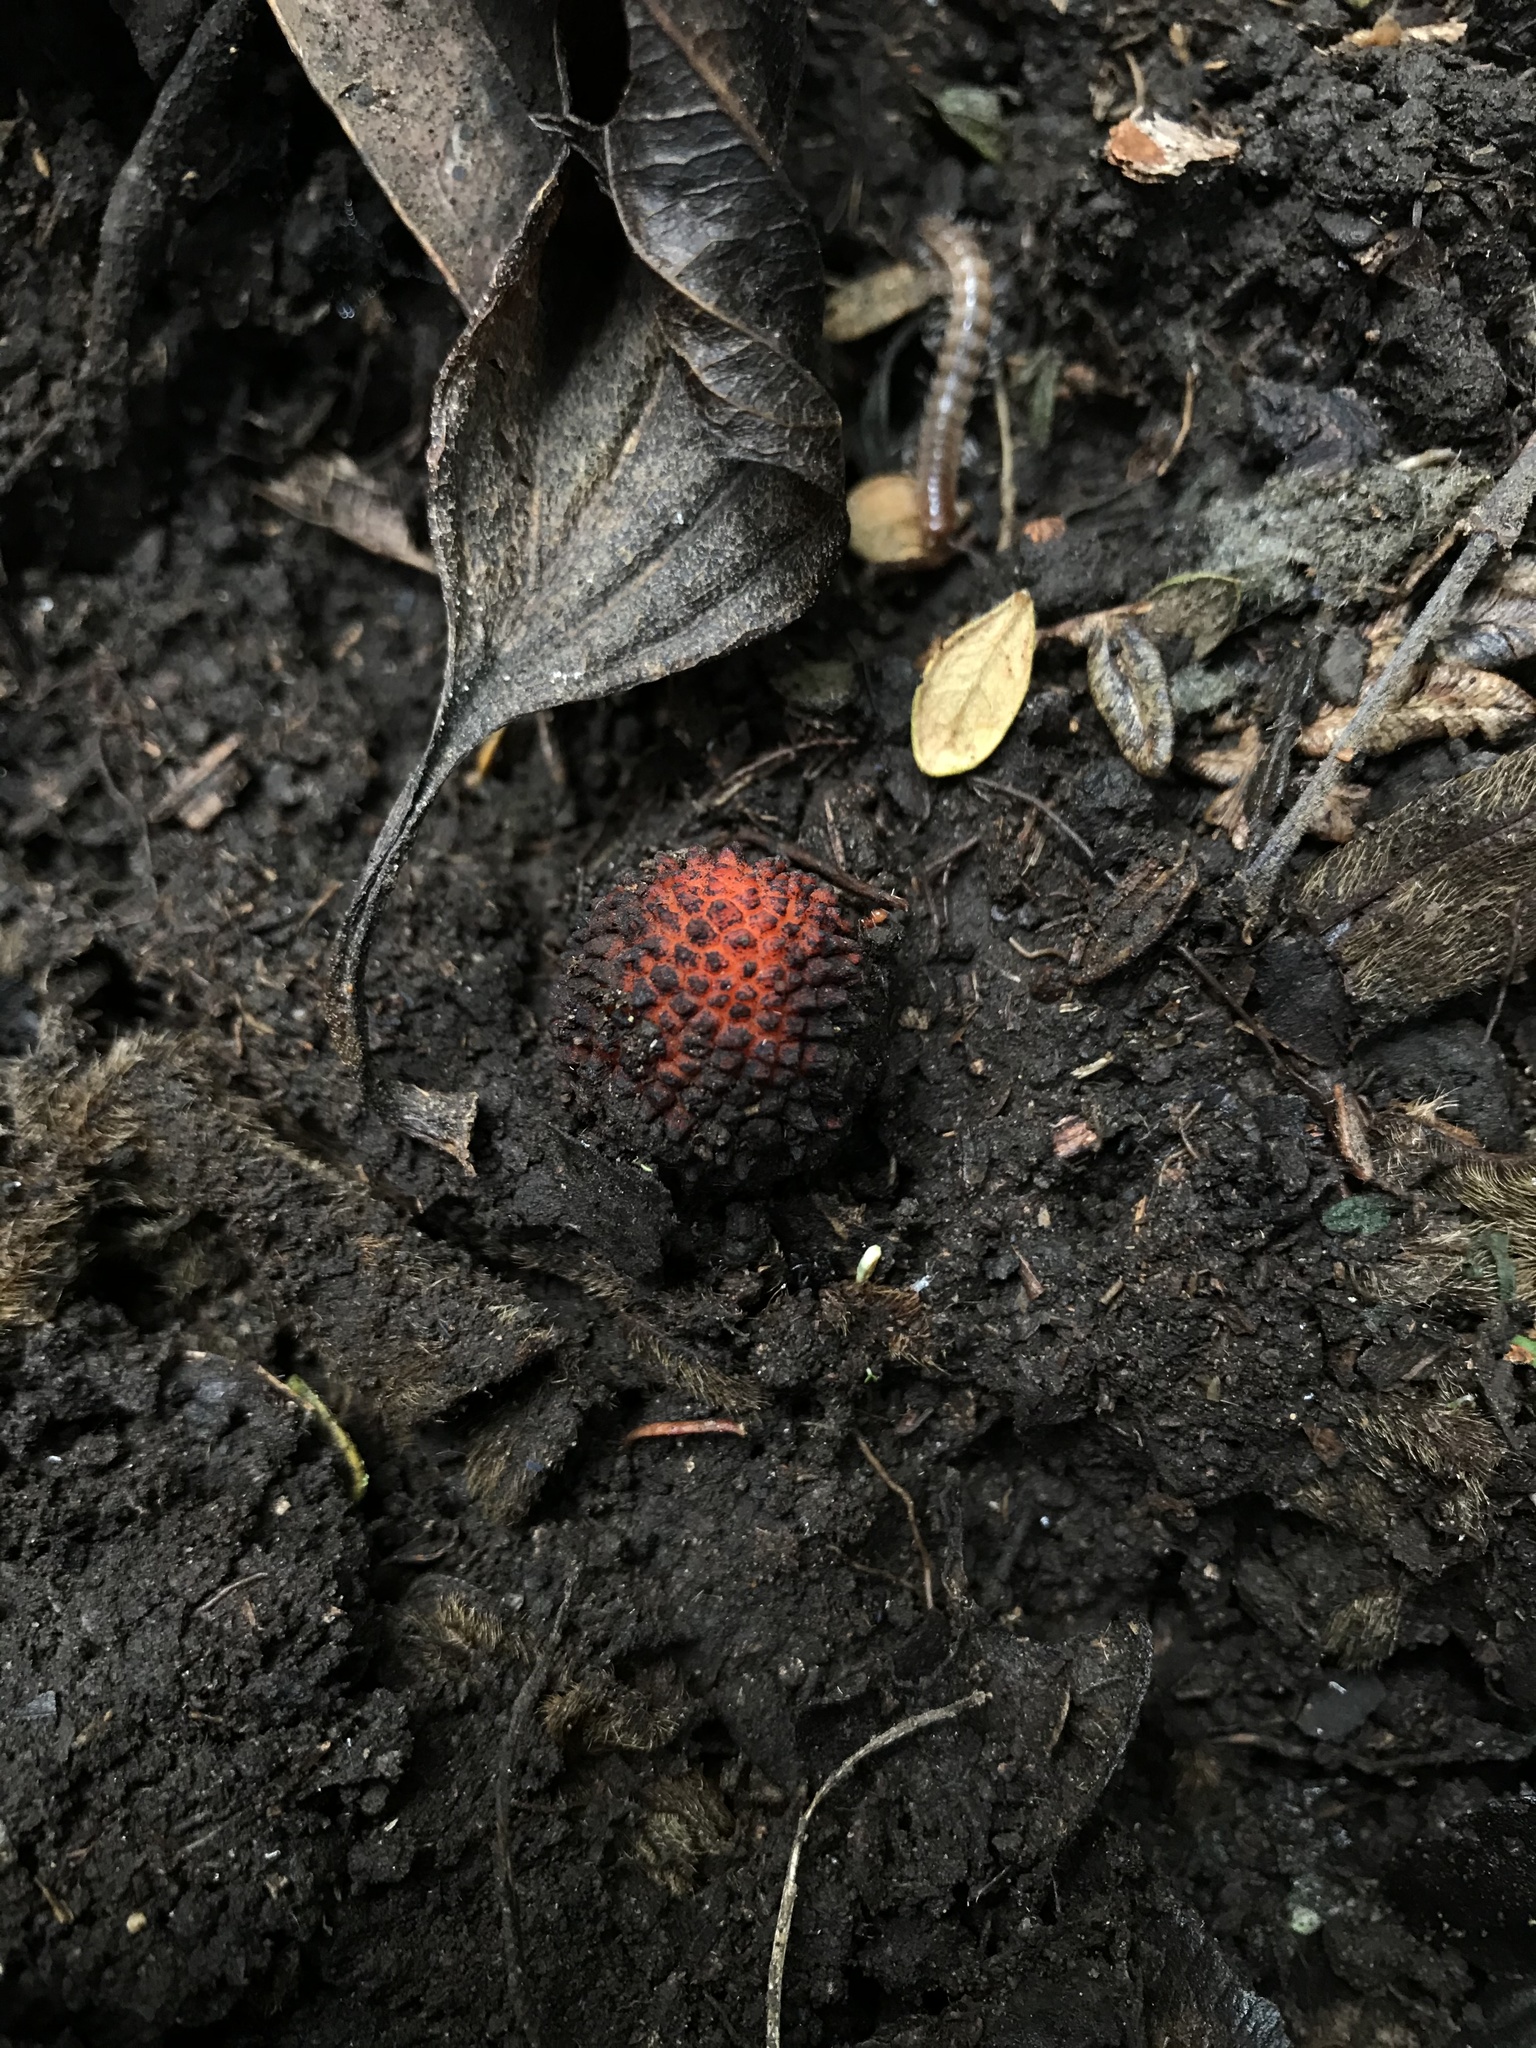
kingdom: Plantae
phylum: Tracheophyta
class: Magnoliopsida
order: Santalales
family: Balanophoraceae
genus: Corynaea
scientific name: Corynaea crassa
